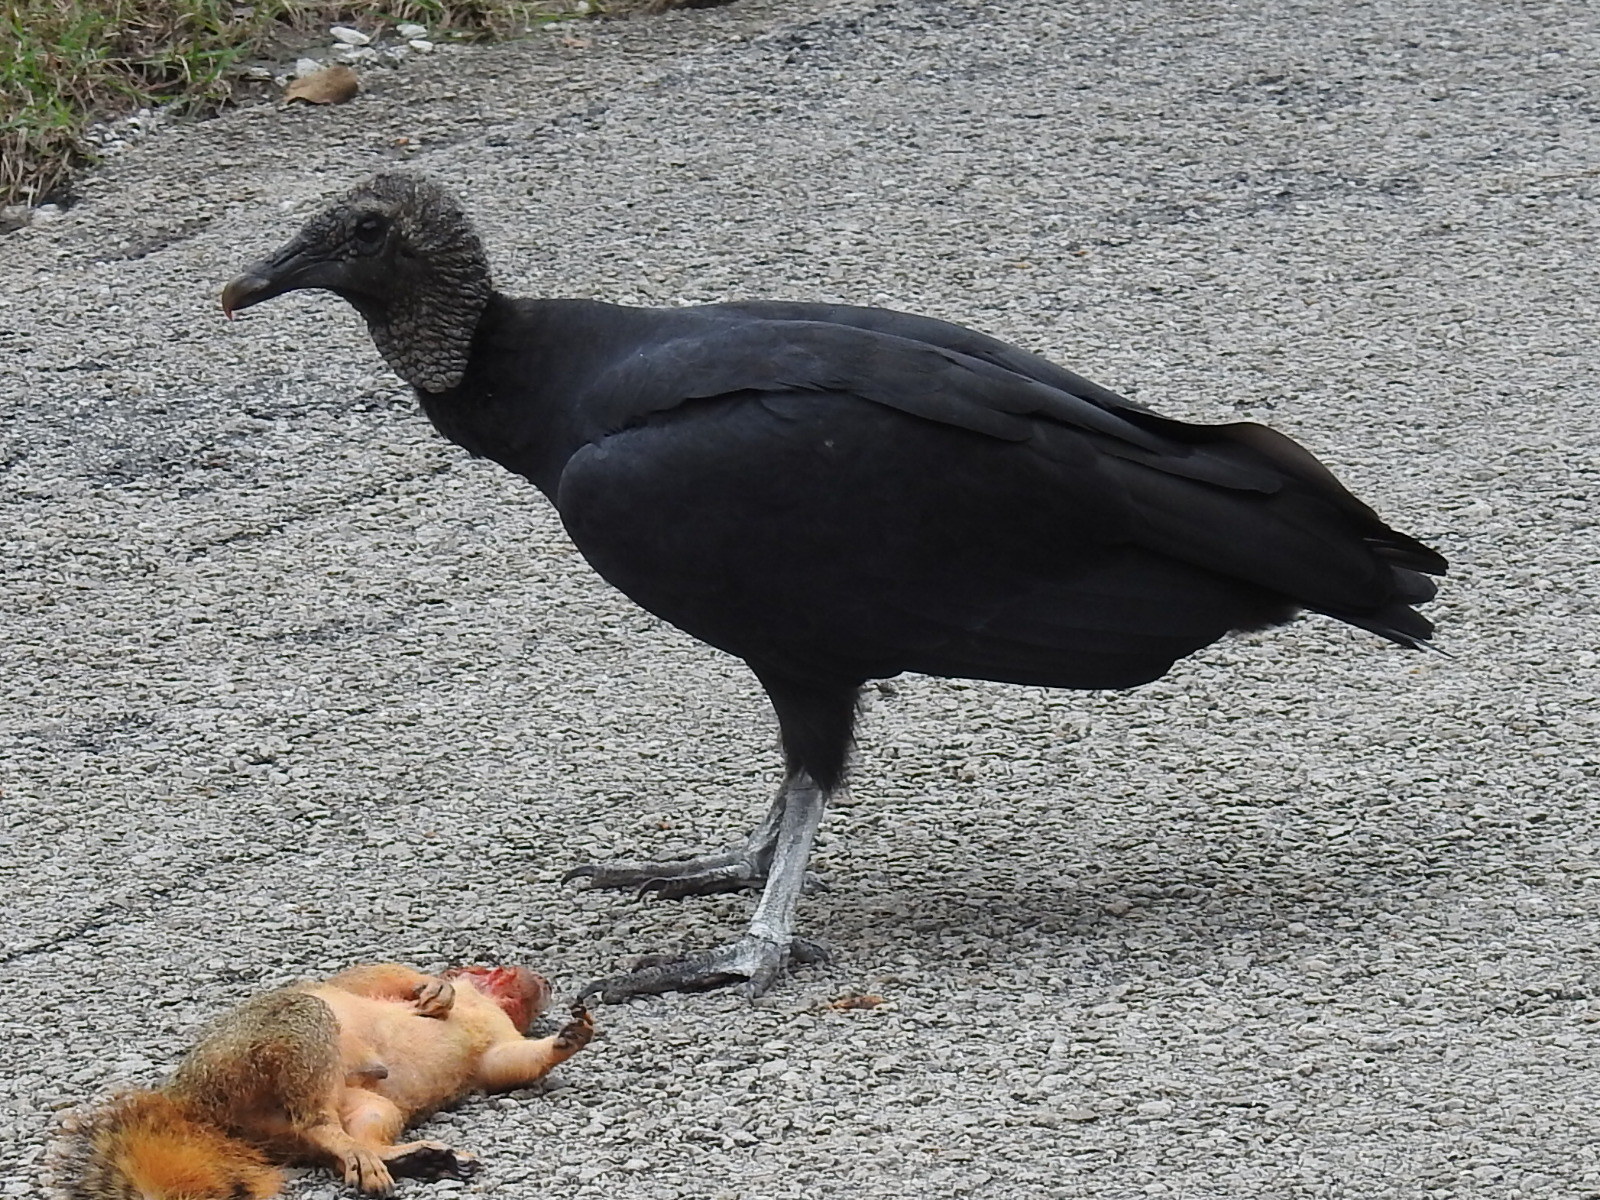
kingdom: Animalia
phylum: Chordata
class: Aves
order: Accipitriformes
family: Cathartidae
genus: Coragyps
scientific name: Coragyps atratus
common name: Black vulture
